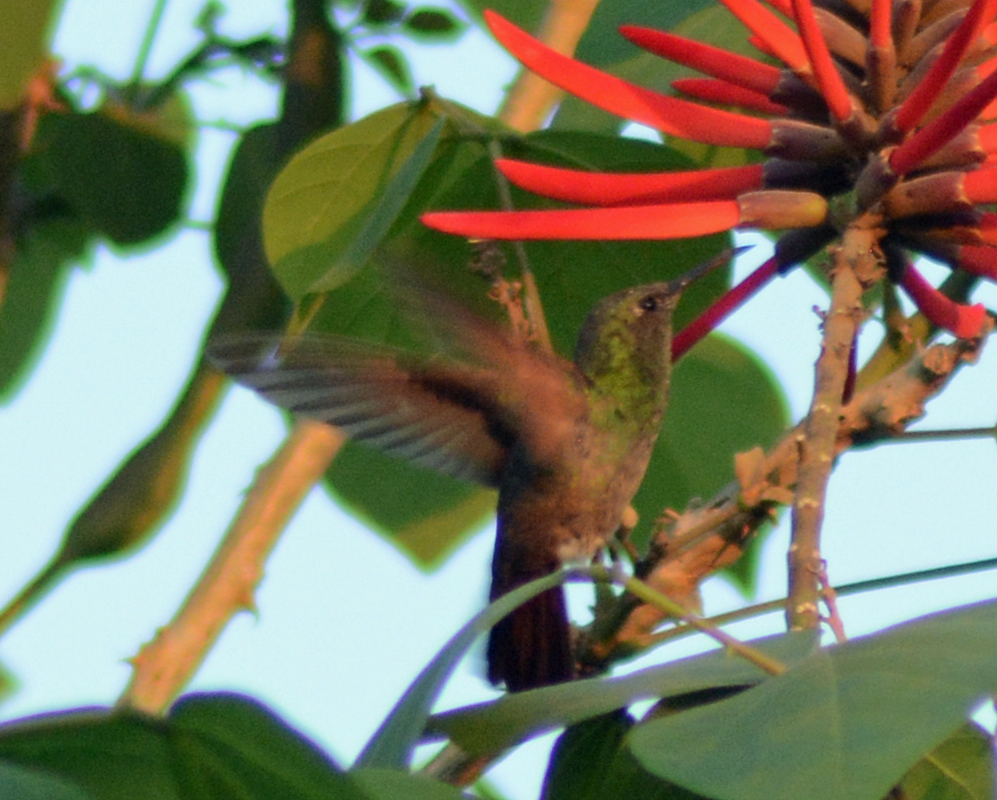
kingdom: Animalia
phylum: Chordata
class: Aves
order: Apodiformes
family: Trochilidae
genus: Saucerottia
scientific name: Saucerottia beryllina
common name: Berylline hummingbird
